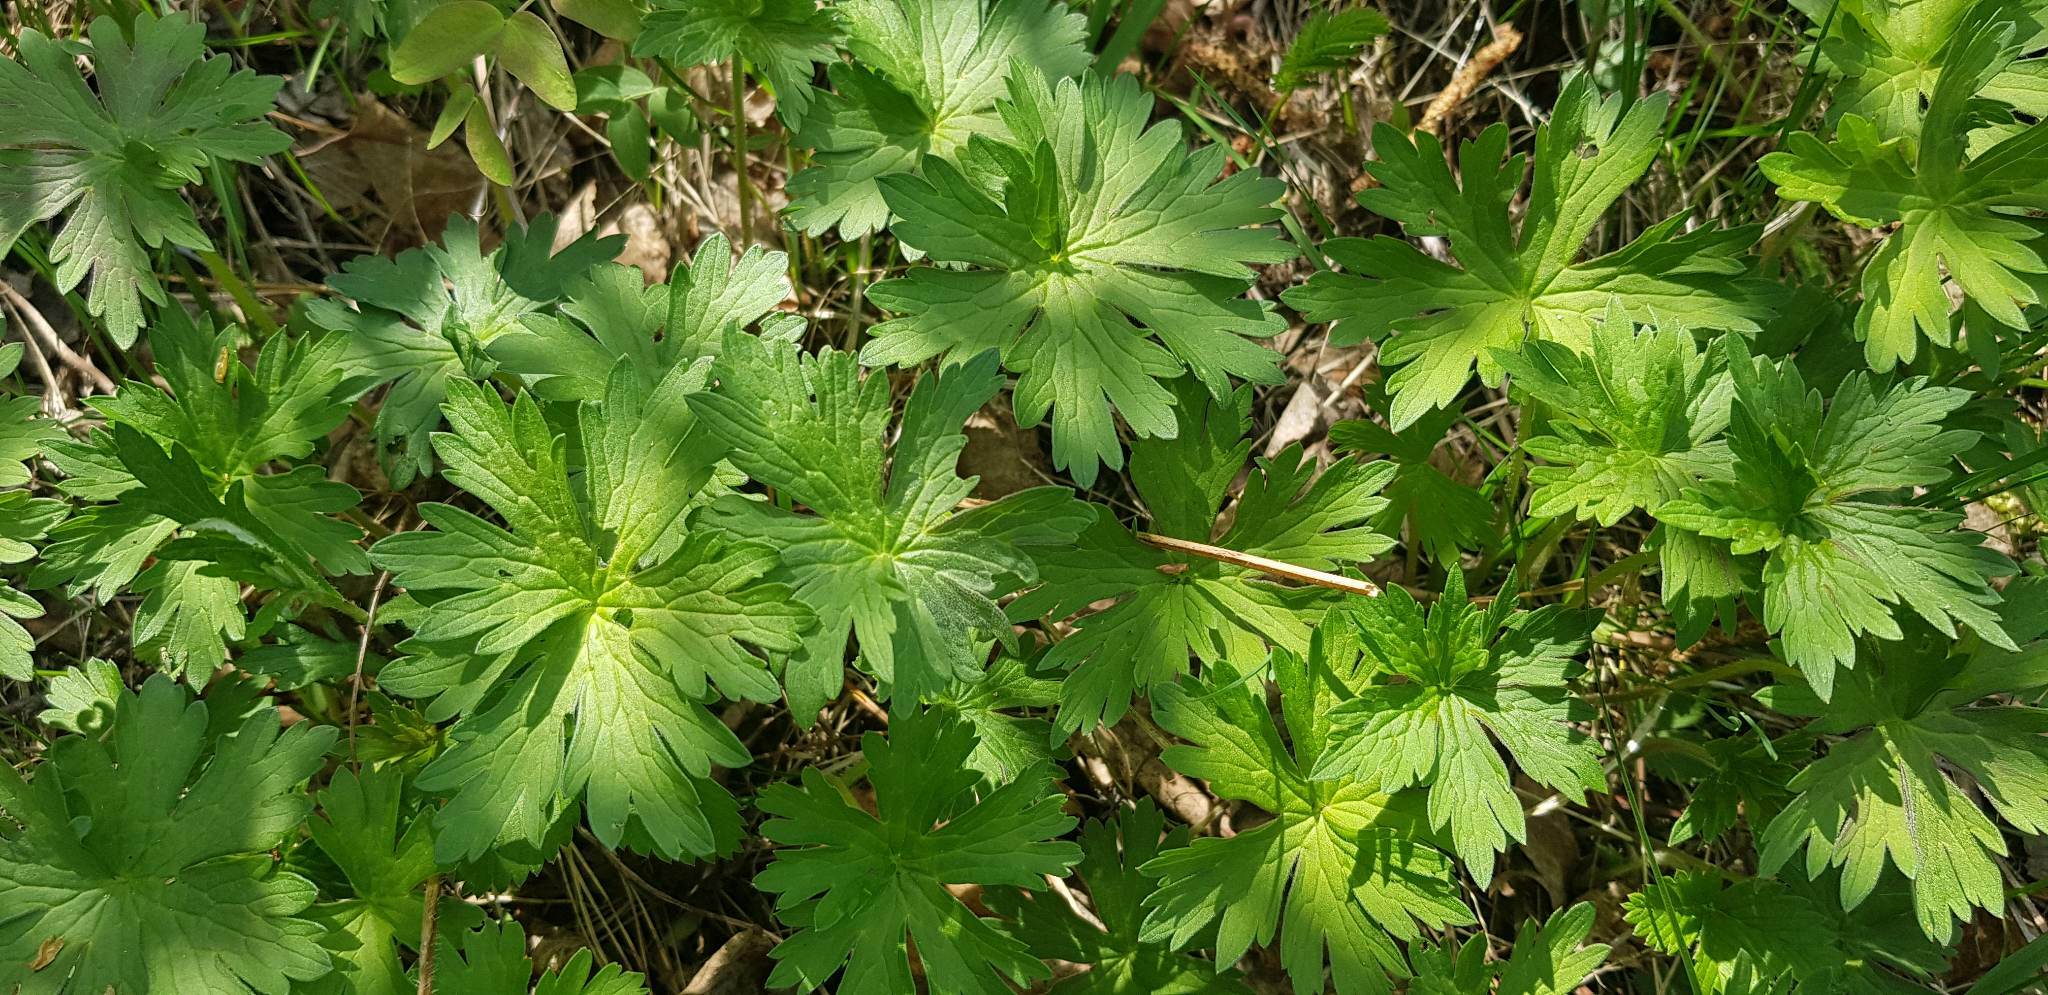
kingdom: Plantae
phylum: Tracheophyta
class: Magnoliopsida
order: Geraniales
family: Geraniaceae
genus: Geranium
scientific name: Geranium pratense
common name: Meadow crane's-bill
